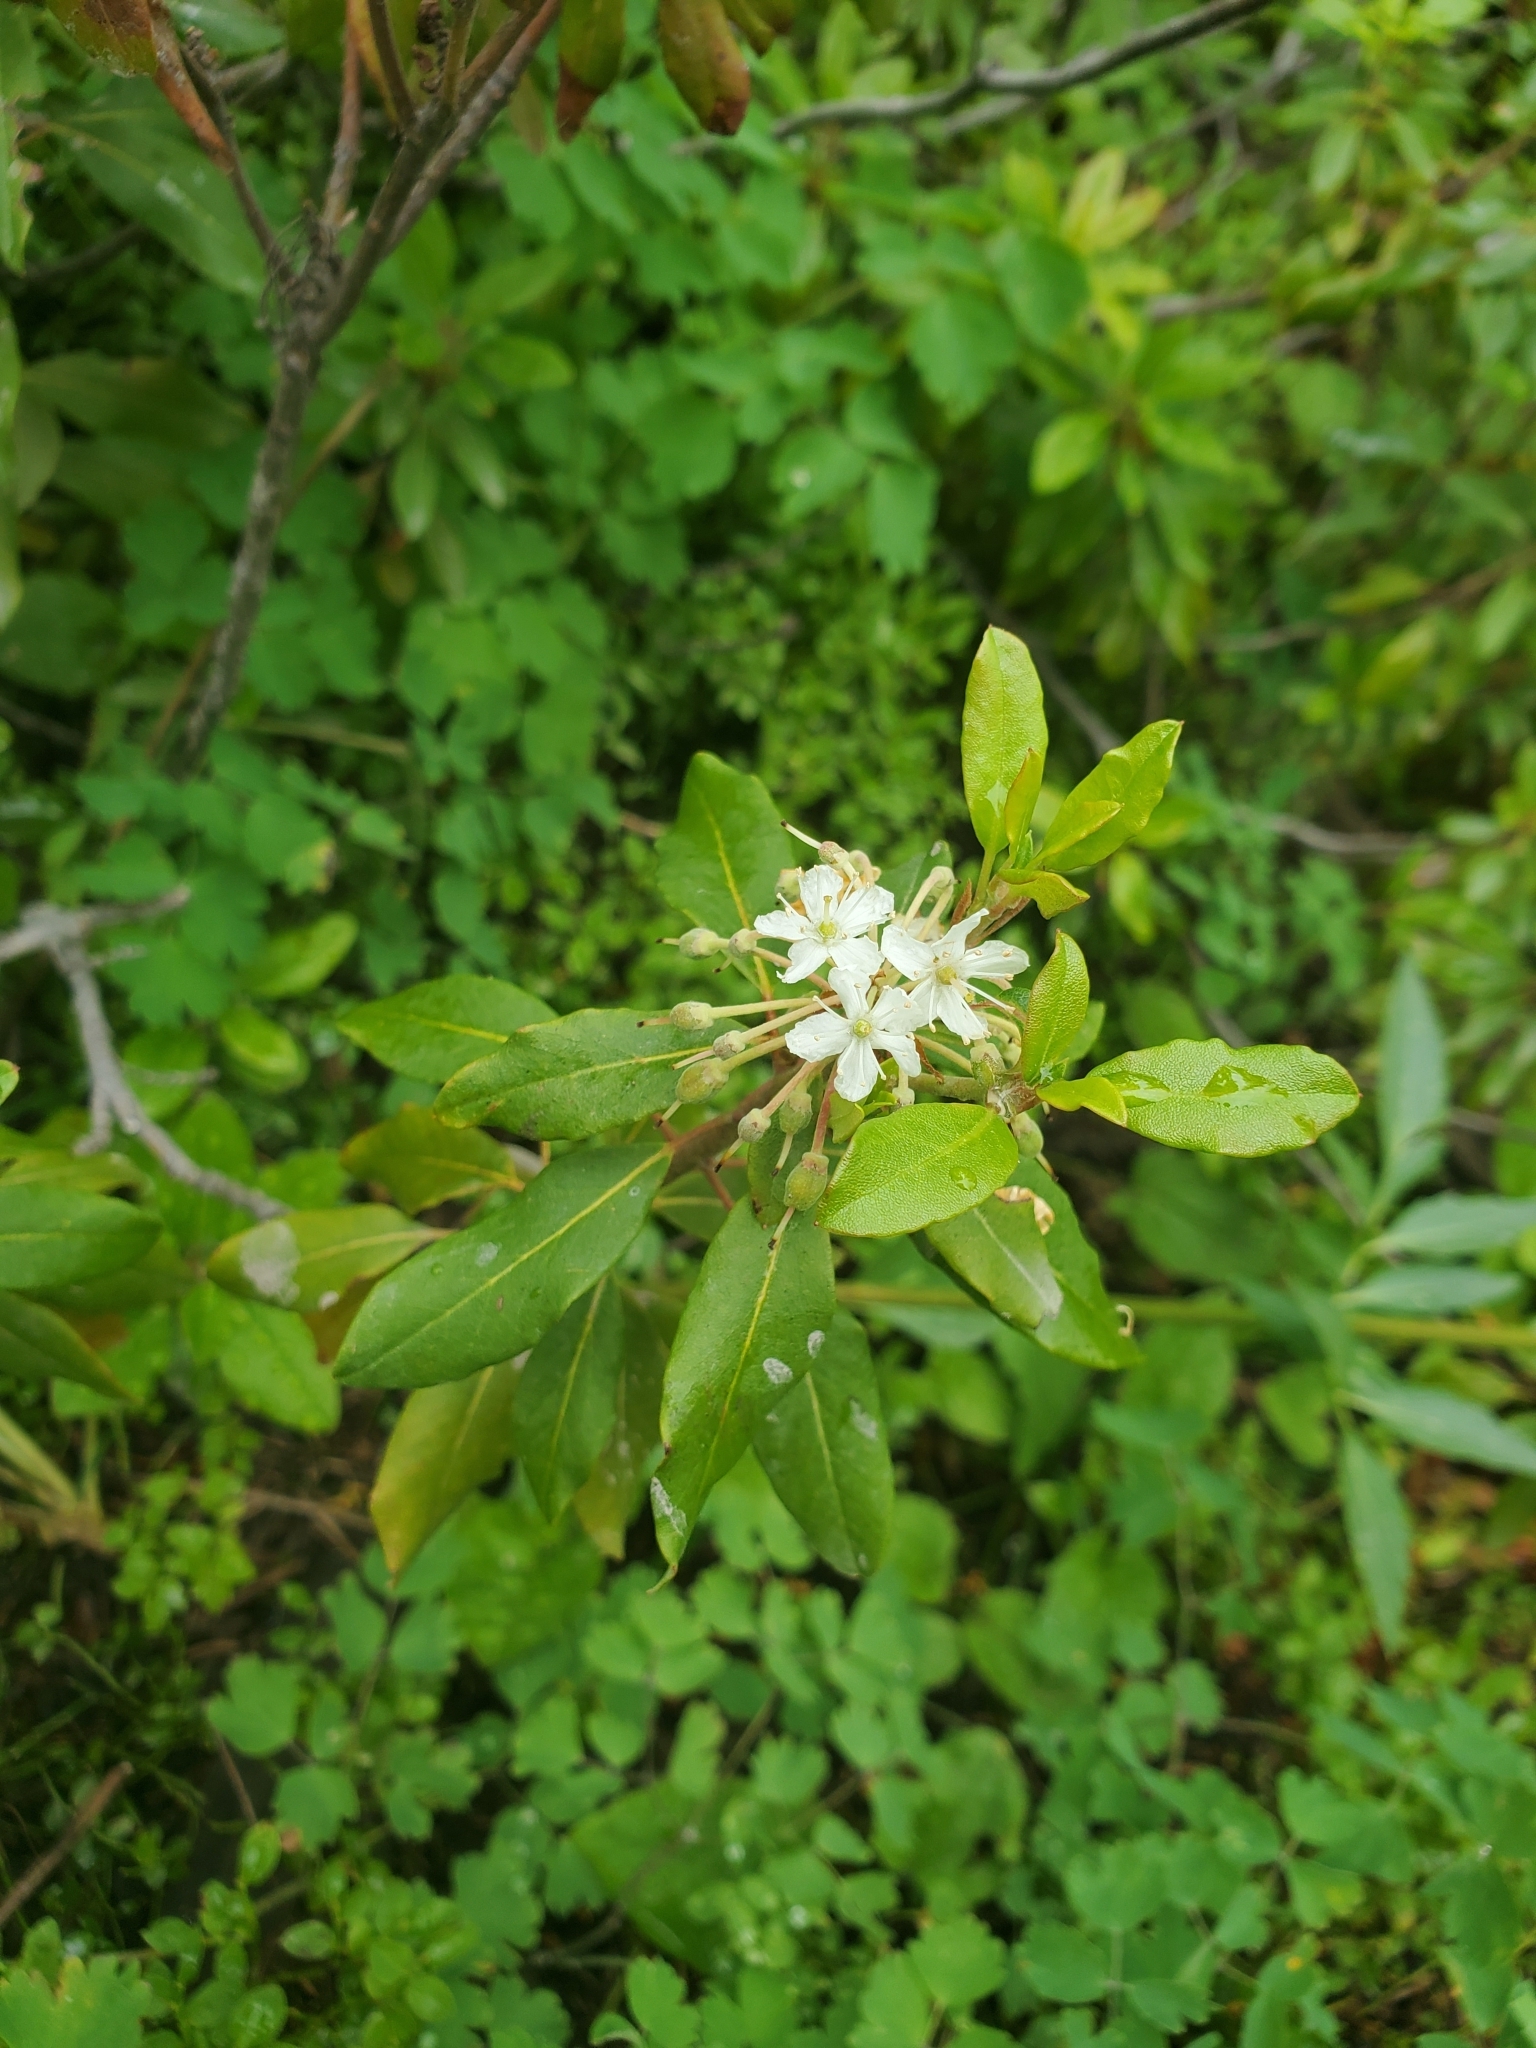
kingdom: Plantae
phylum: Tracheophyta
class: Magnoliopsida
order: Ericales
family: Ericaceae
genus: Rhododendron
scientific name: Rhododendron columbianum
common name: Western labrador tea
